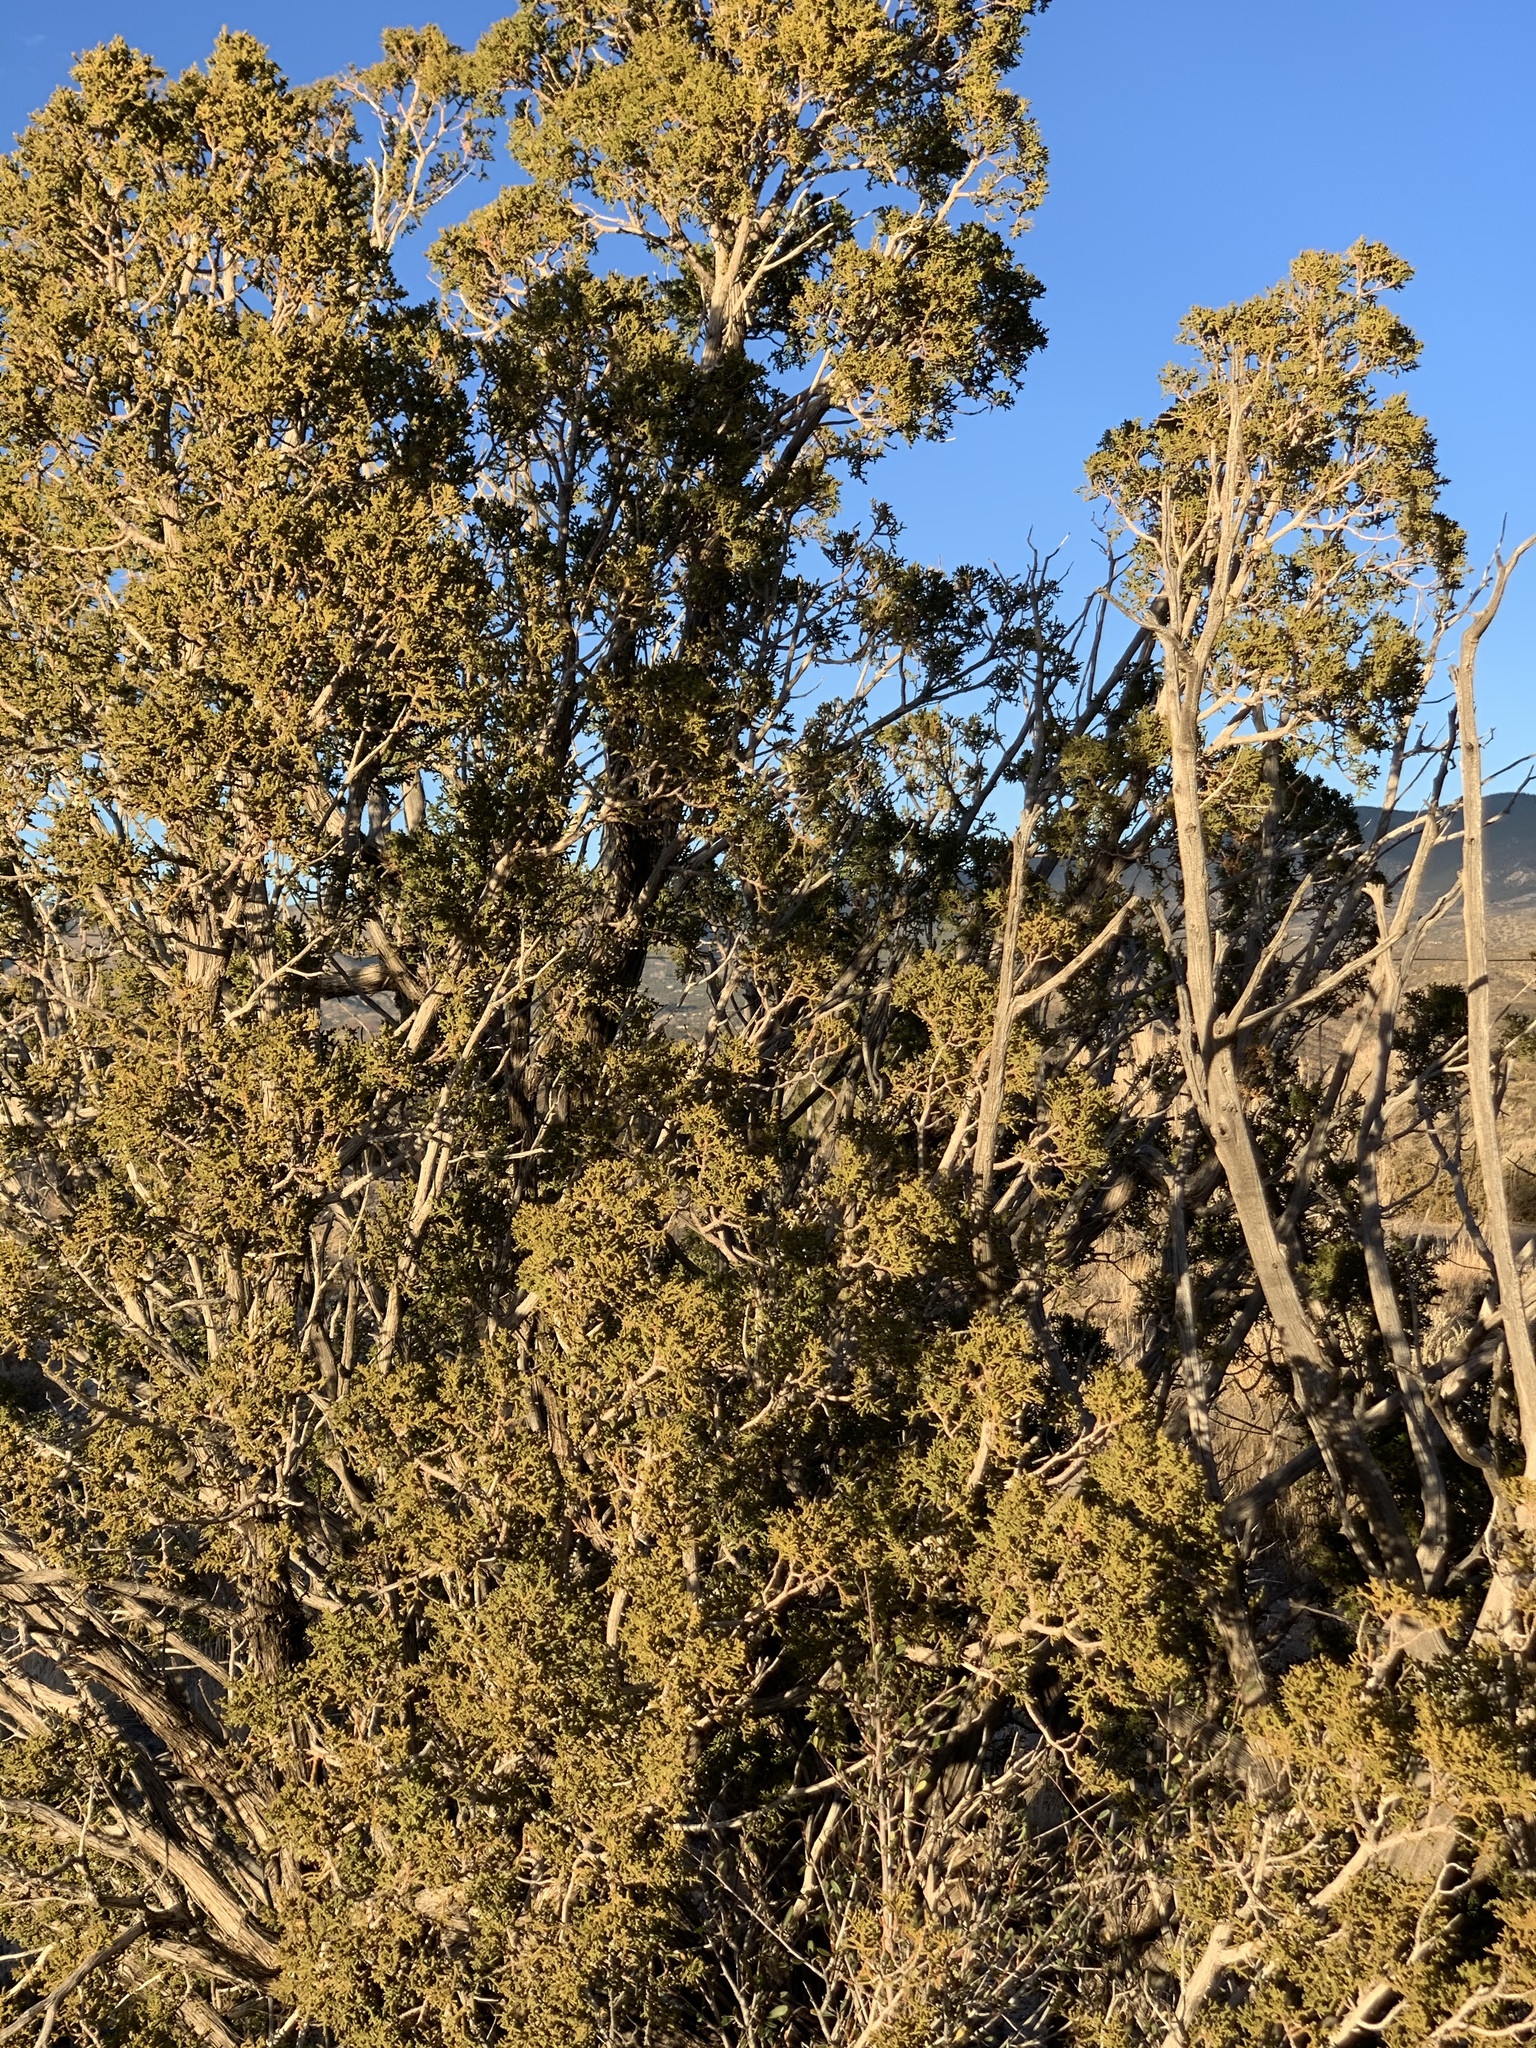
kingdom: Plantae
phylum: Tracheophyta
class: Pinopsida
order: Pinales
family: Cupressaceae
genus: Juniperus
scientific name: Juniperus monosperma
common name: One-seed juniper
